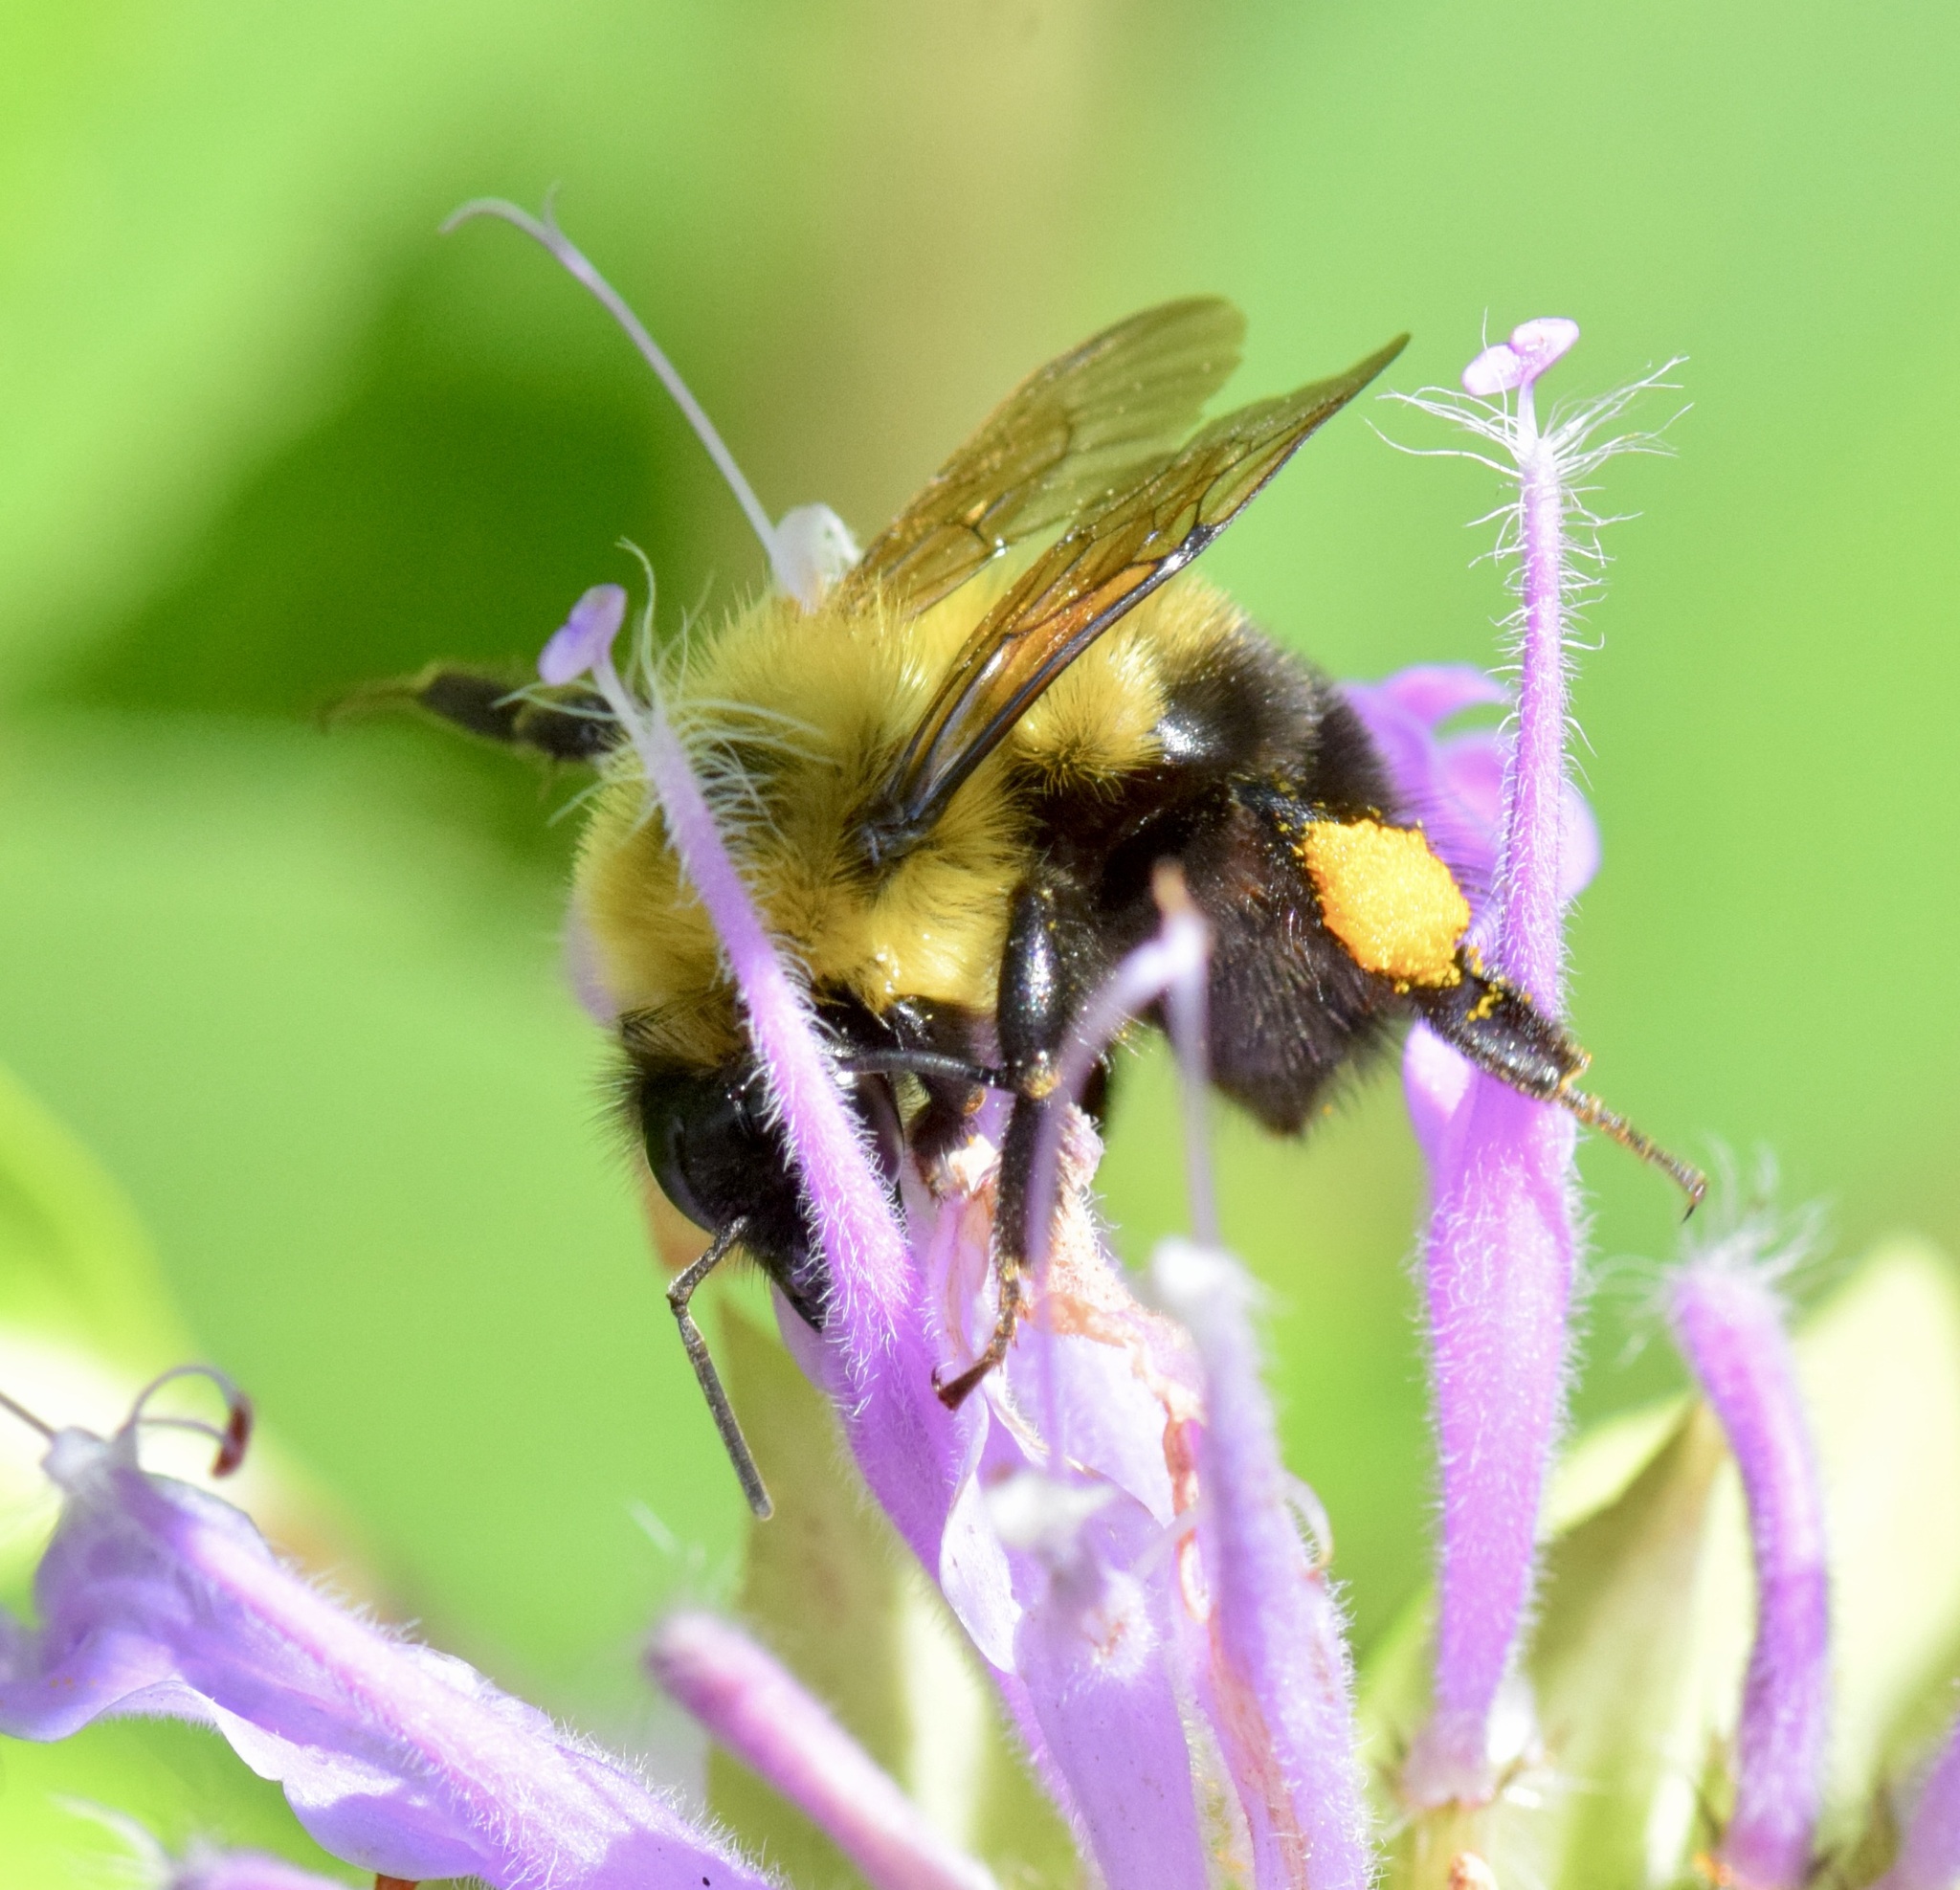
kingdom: Animalia
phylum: Arthropoda
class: Insecta
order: Hymenoptera
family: Apidae
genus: Bombus
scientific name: Bombus bimaculatus
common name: Two-spotted bumble bee
